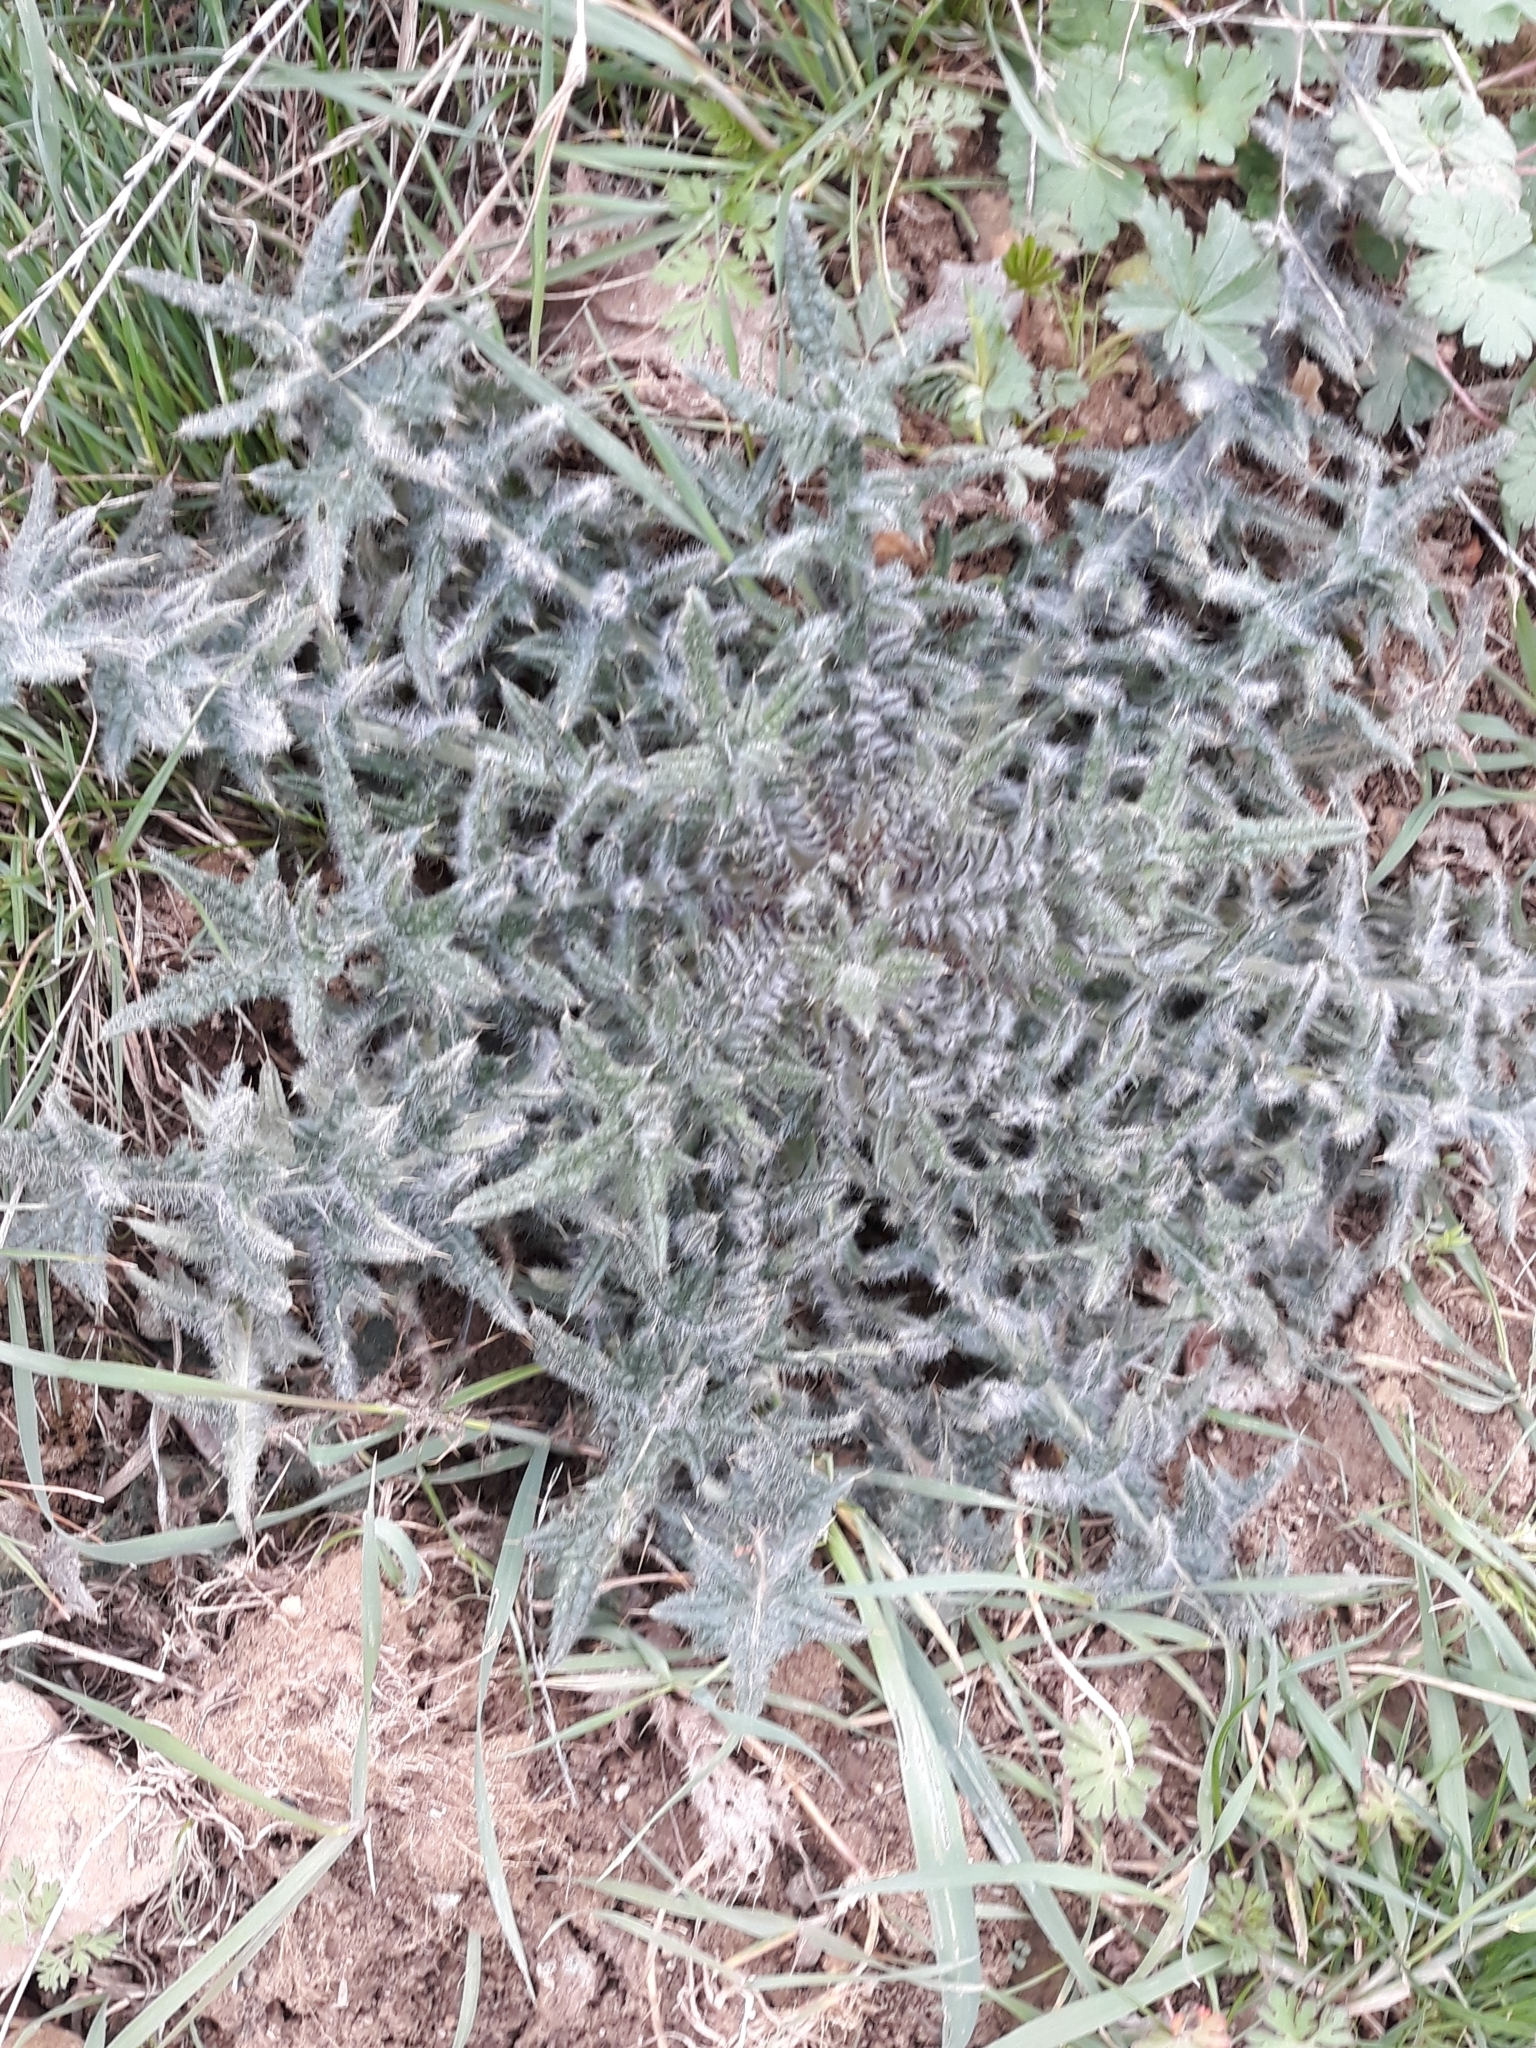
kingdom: Plantae
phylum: Tracheophyta
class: Magnoliopsida
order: Asterales
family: Asteraceae
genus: Cirsium
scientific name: Cirsium vulgare
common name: Bull thistle
